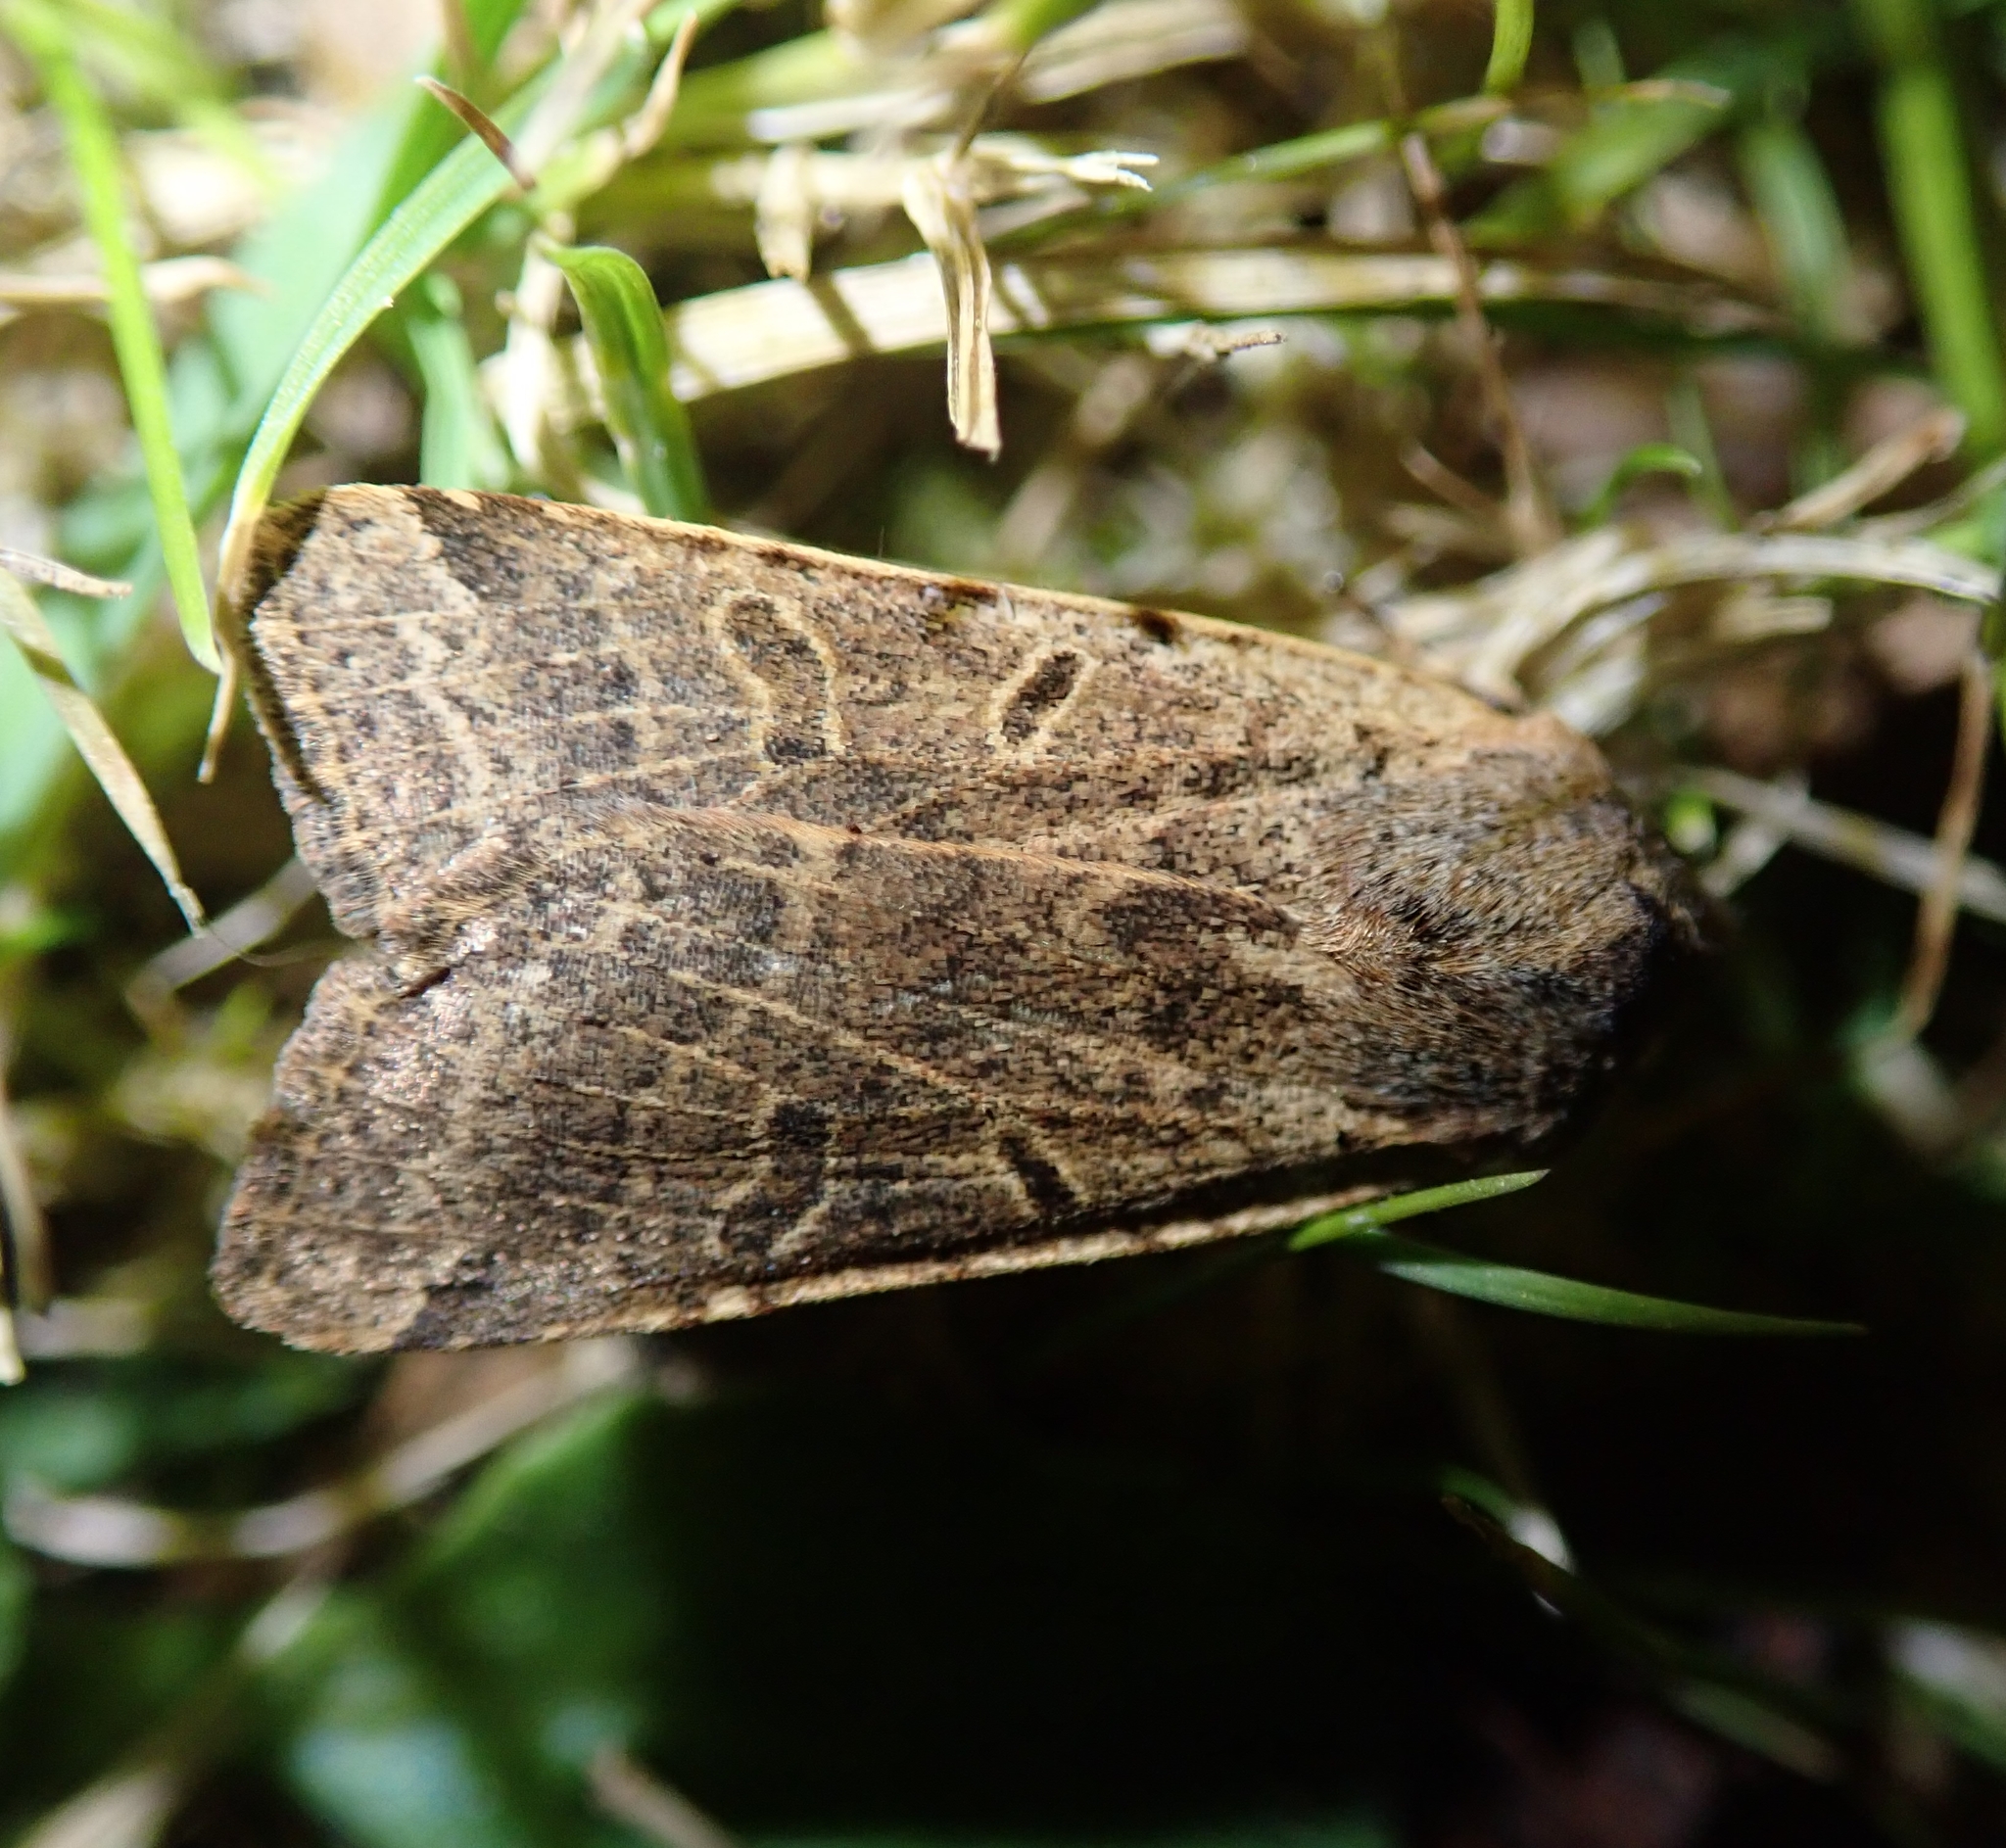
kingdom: Animalia
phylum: Arthropoda
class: Insecta
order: Lepidoptera
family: Noctuidae
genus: Agrochola
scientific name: Agrochola lychnidis
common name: Beaded chestnut
